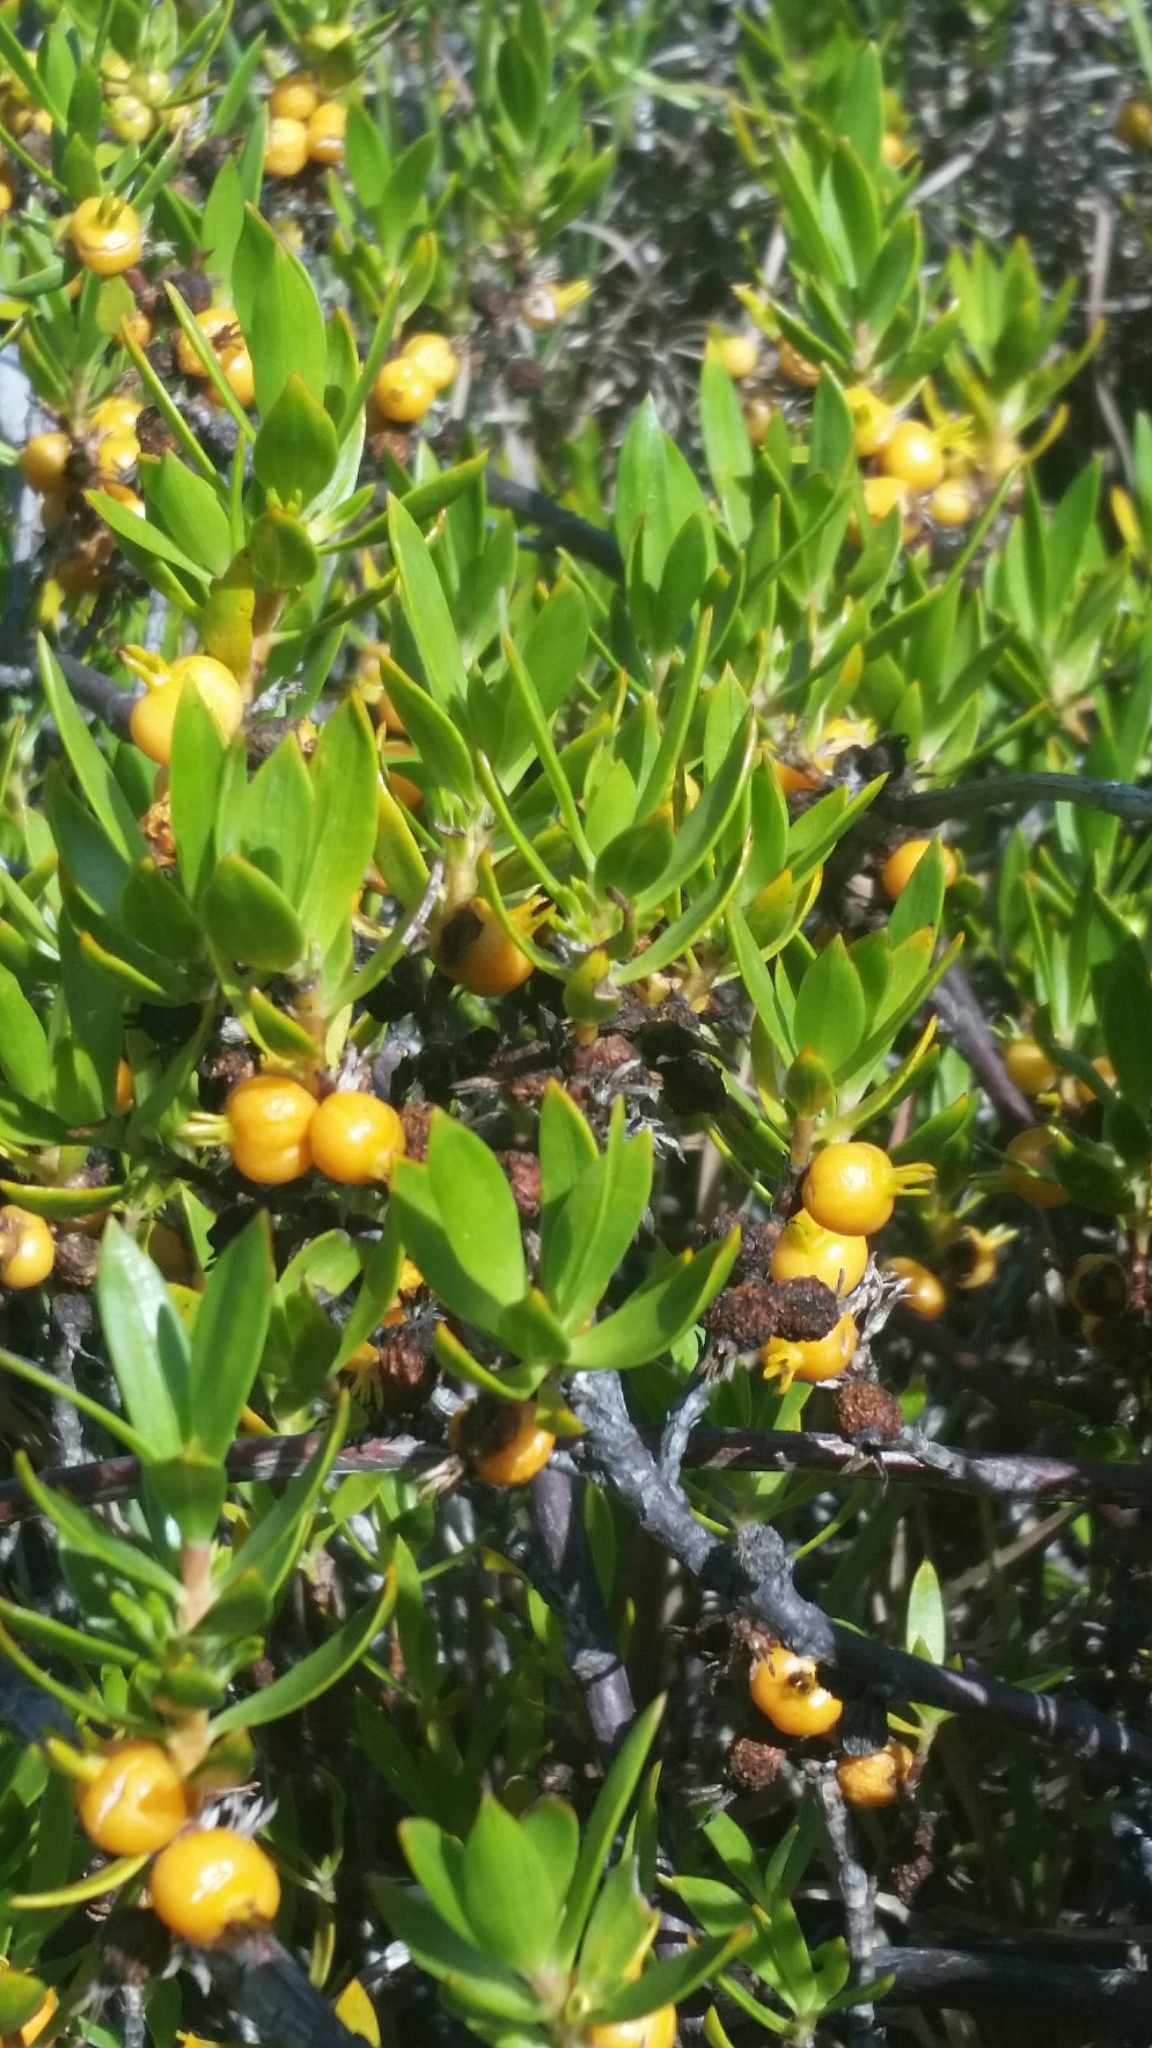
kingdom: Plantae
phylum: Tracheophyta
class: Magnoliopsida
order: Gentianales
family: Rubiaceae
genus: Ernodea
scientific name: Ernodea littoralis
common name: Beach creeper
